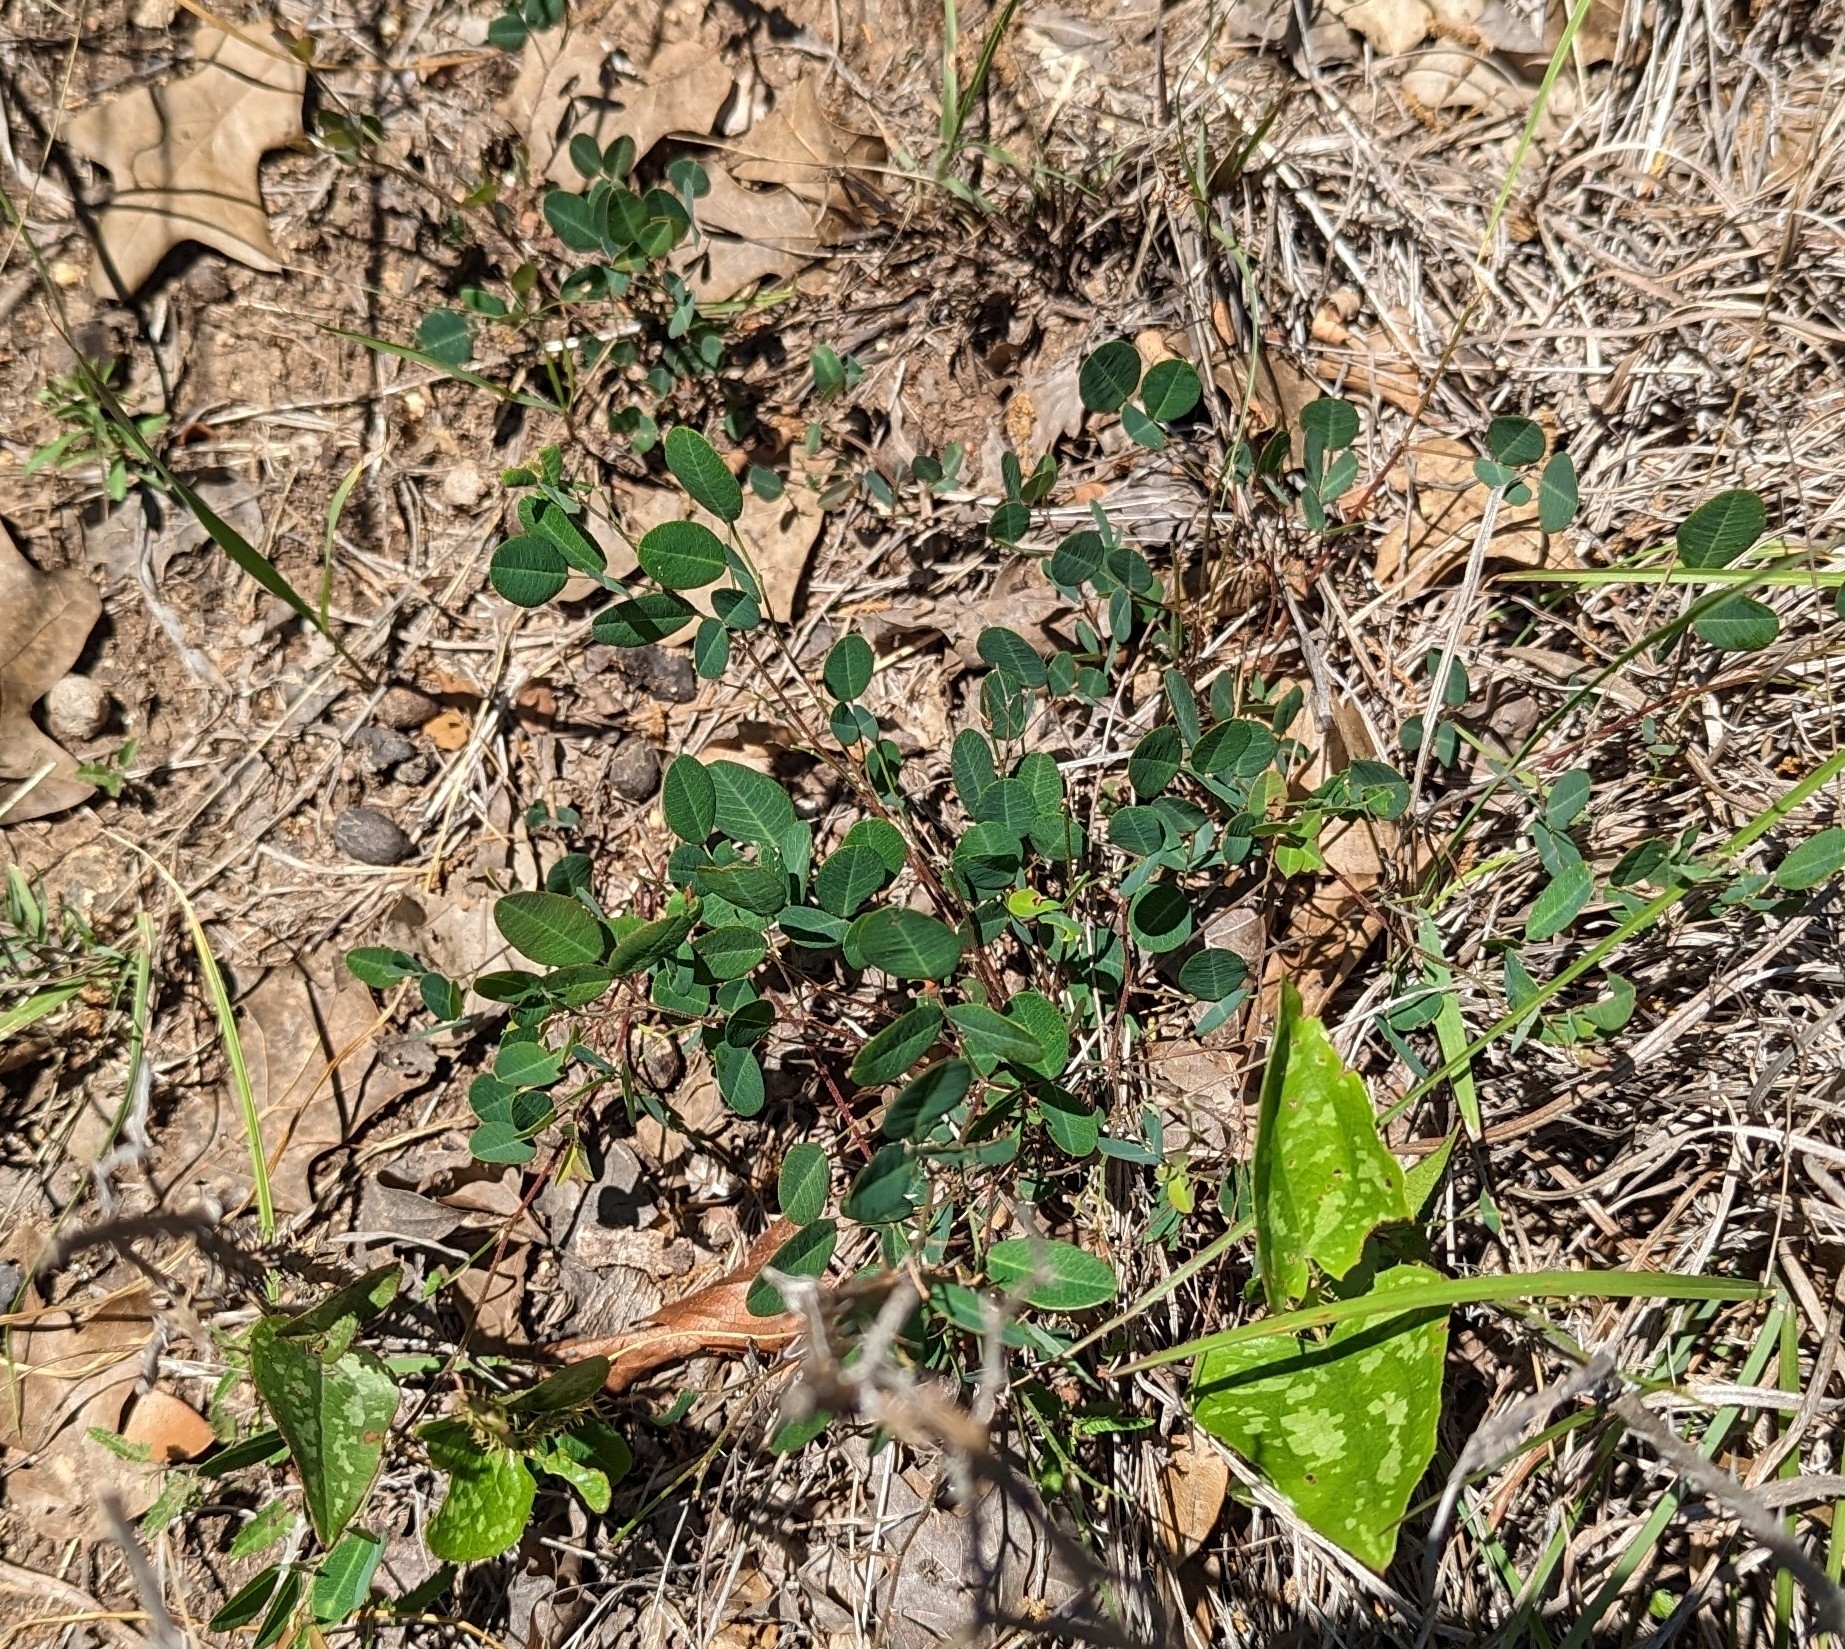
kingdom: Plantae
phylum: Tracheophyta
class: Magnoliopsida
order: Fabales
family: Fabaceae
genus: Lespedeza
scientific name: Lespedeza texana
